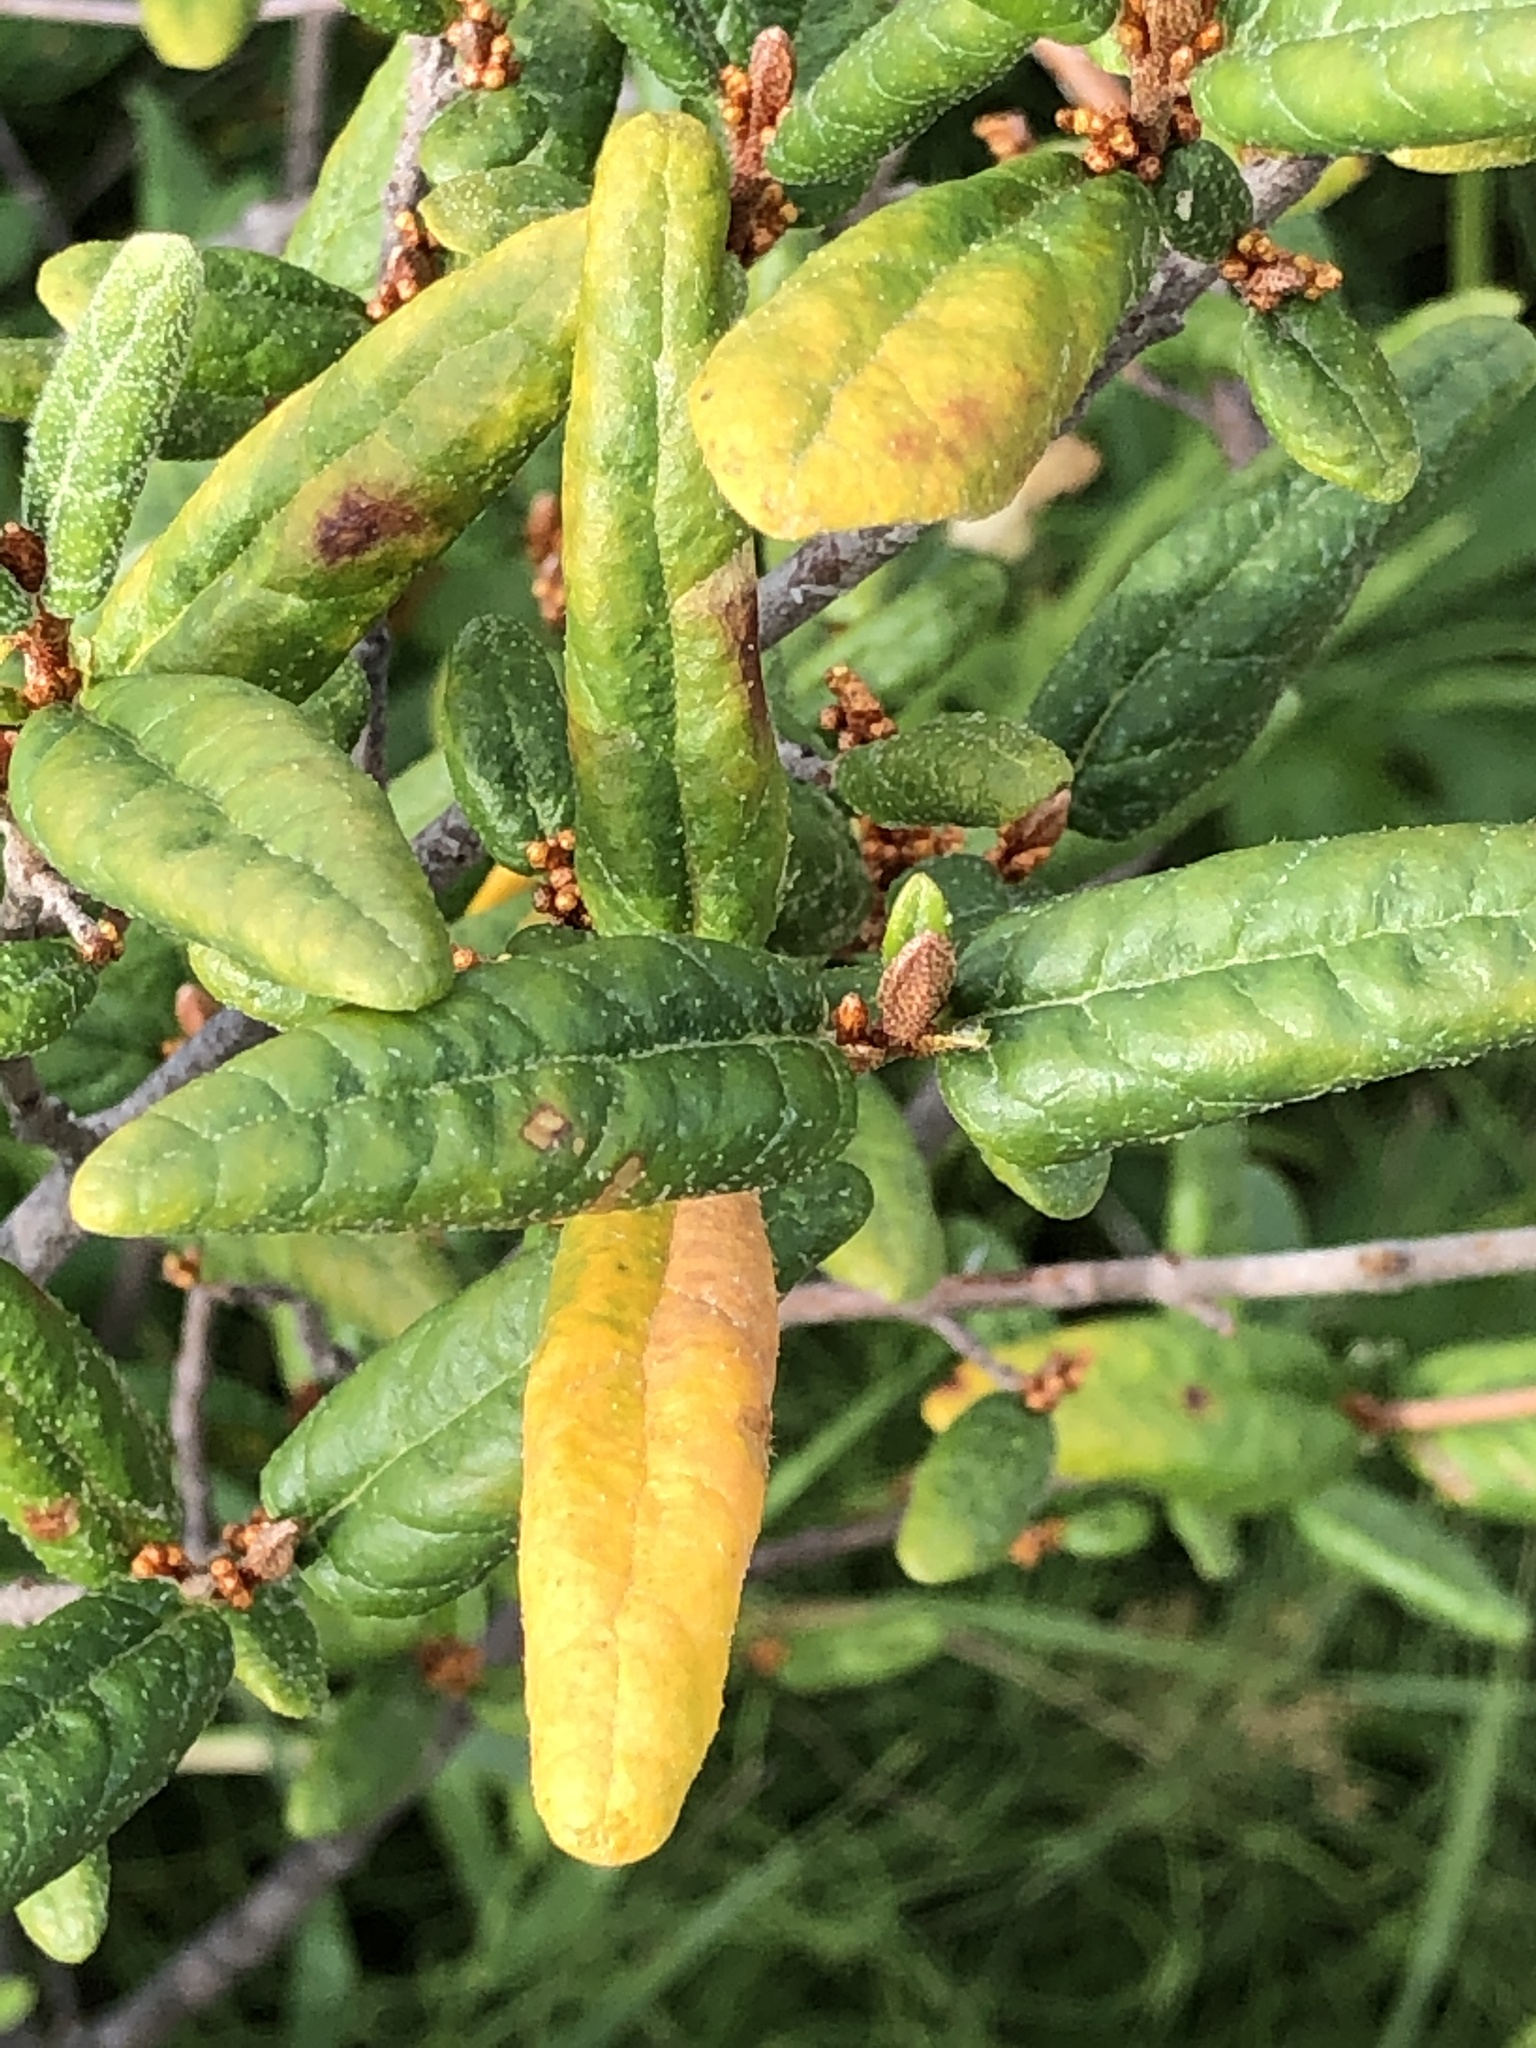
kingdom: Plantae
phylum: Tracheophyta
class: Magnoliopsida
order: Rosales
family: Elaeagnaceae
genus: Shepherdia
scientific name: Shepherdia canadensis
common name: Soapberry
